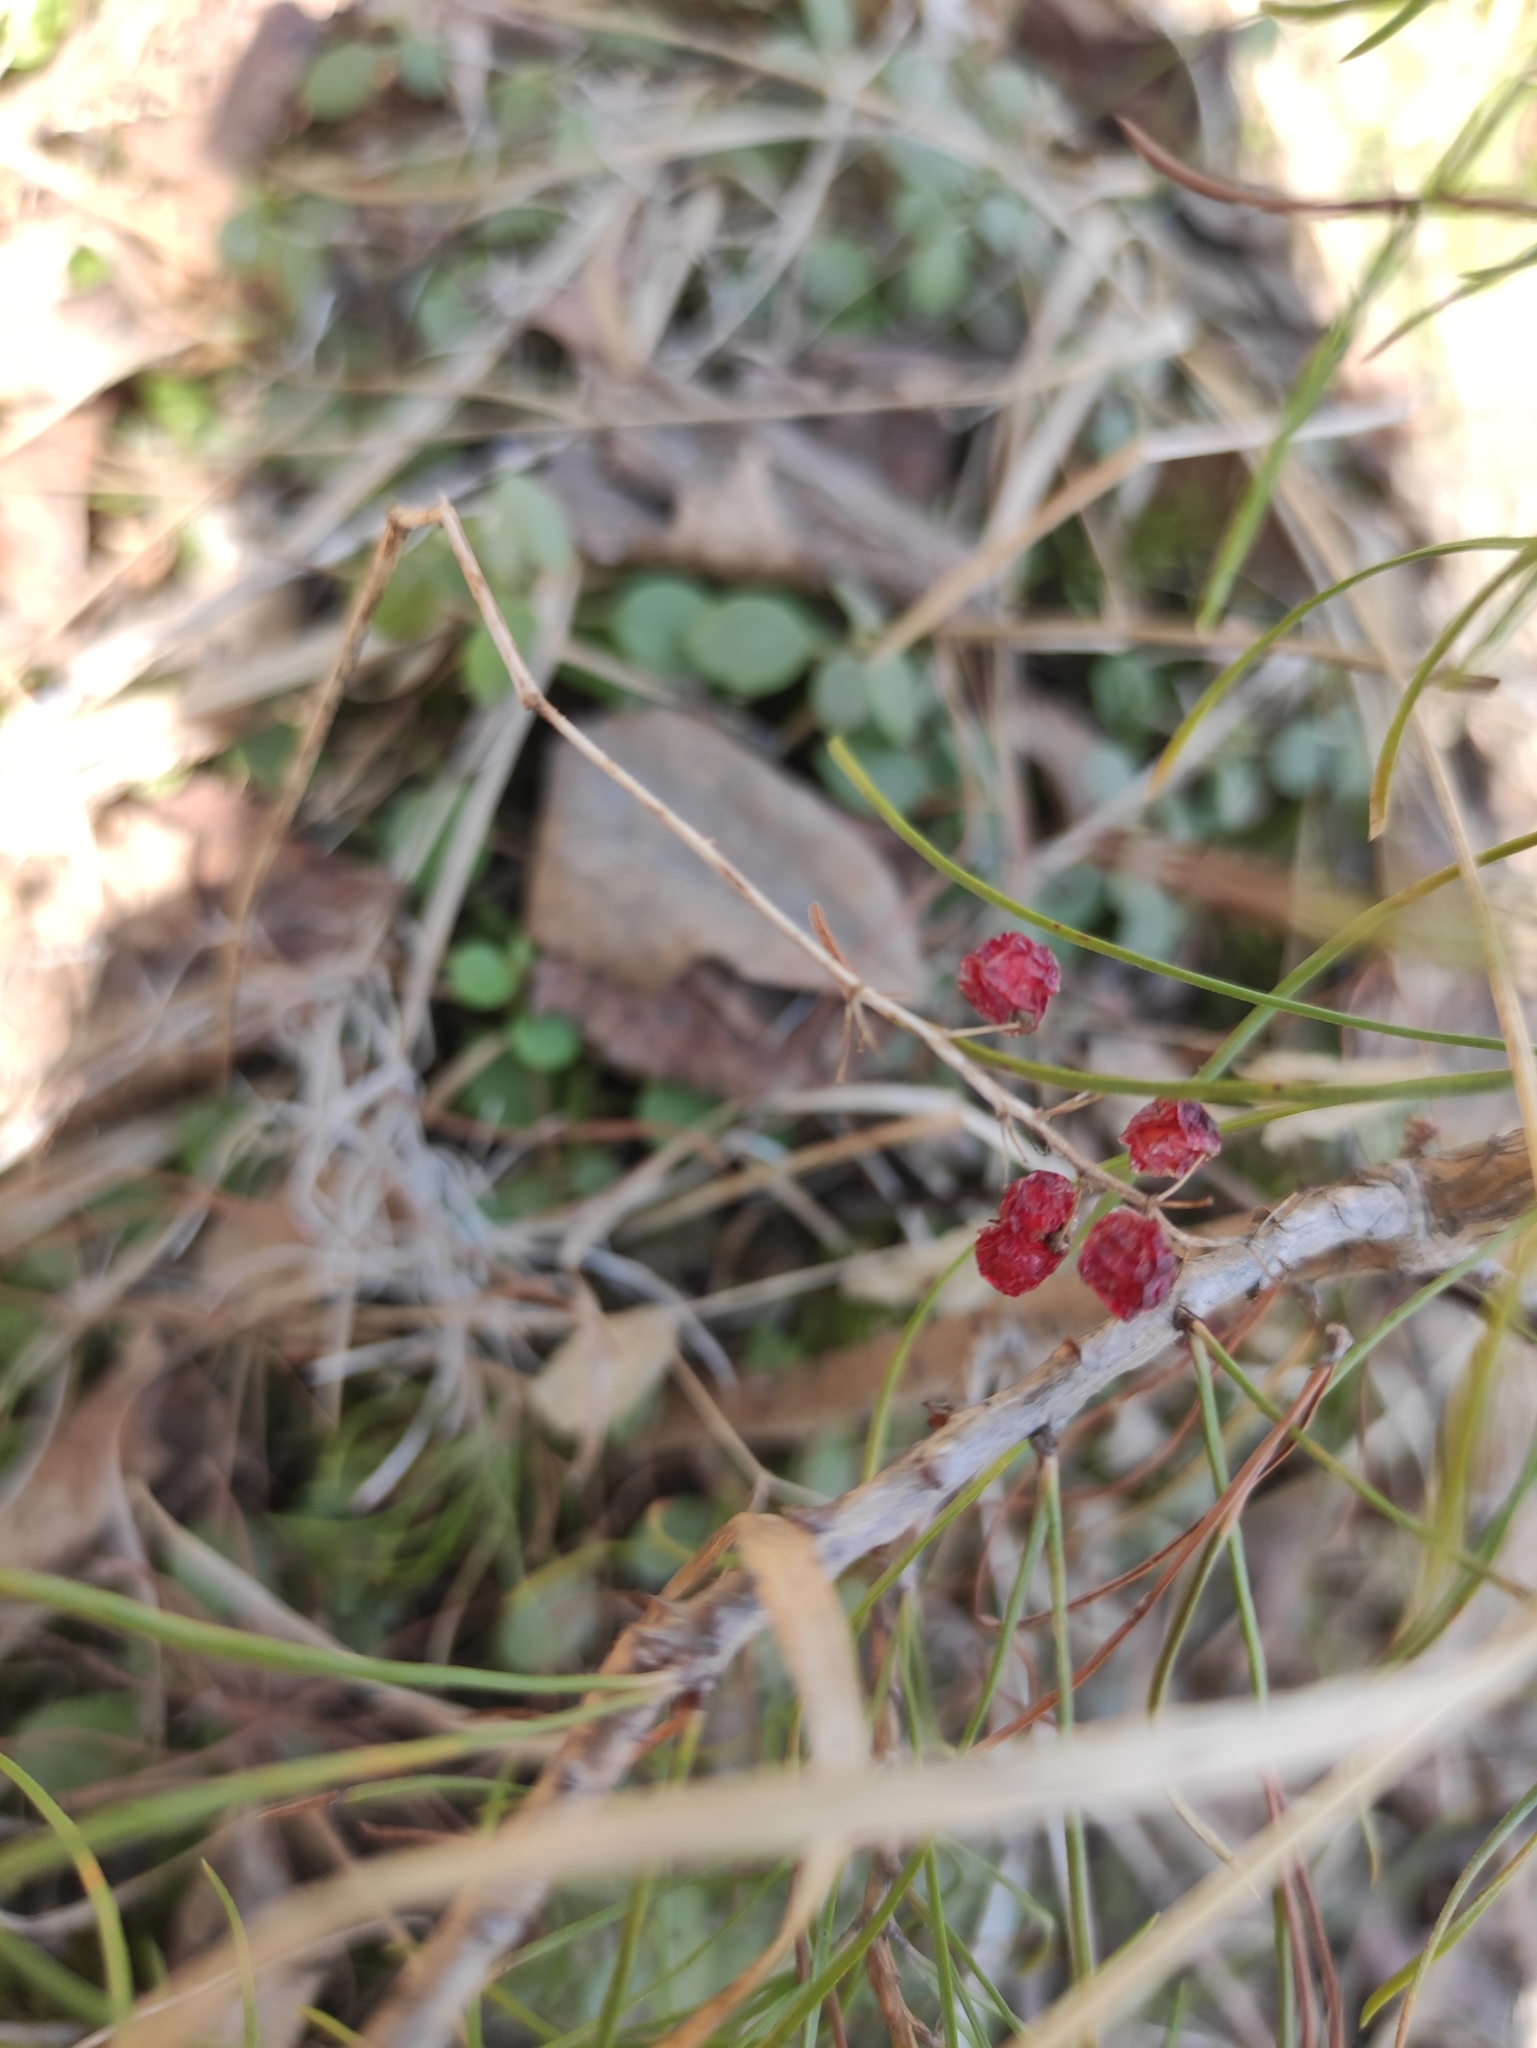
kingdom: Plantae
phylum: Tracheophyta
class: Liliopsida
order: Asparagales
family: Asparagaceae
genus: Maianthemum
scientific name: Maianthemum bifolium
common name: May lily
